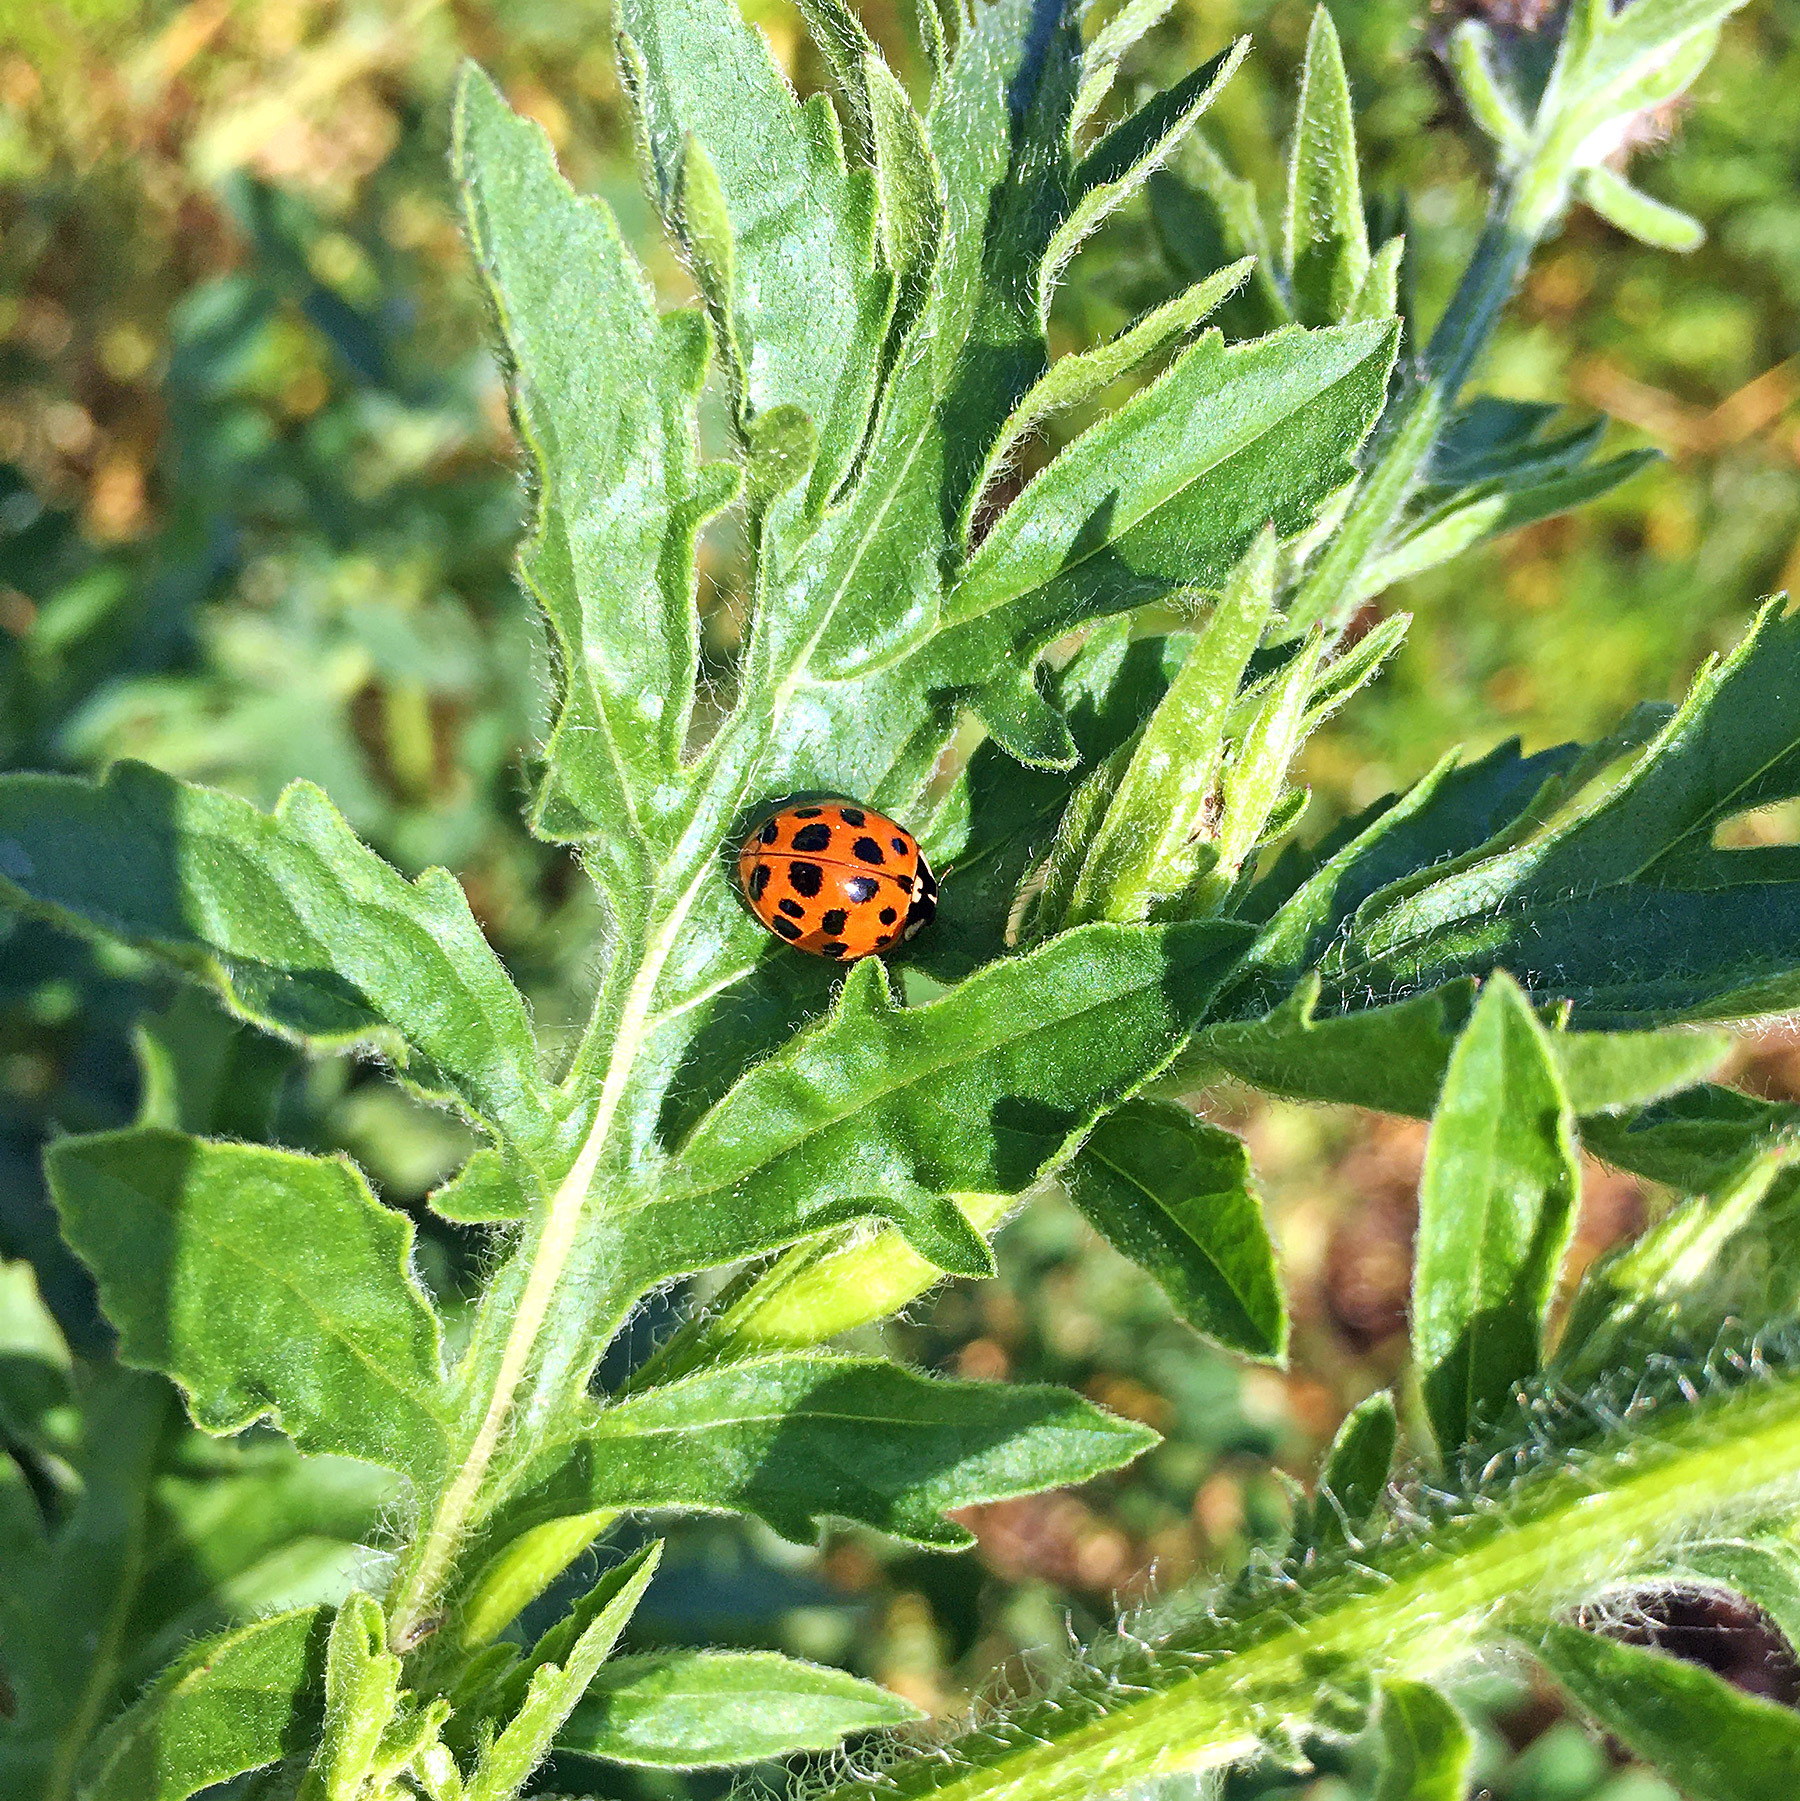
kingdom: Animalia
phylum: Arthropoda
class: Insecta
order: Coleoptera
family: Coccinellidae
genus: Harmonia
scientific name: Harmonia axyridis
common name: Harlequin ladybird
